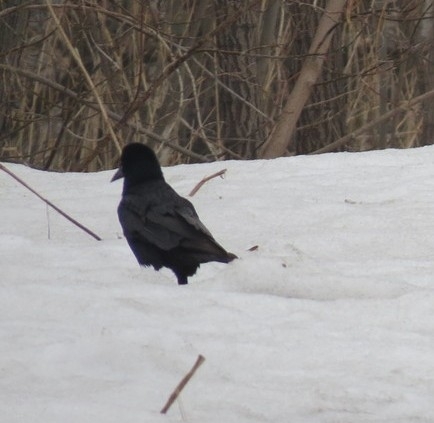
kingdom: Animalia
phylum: Chordata
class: Aves
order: Passeriformes
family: Corvidae
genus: Corvus
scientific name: Corvus frugilegus
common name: Rook
